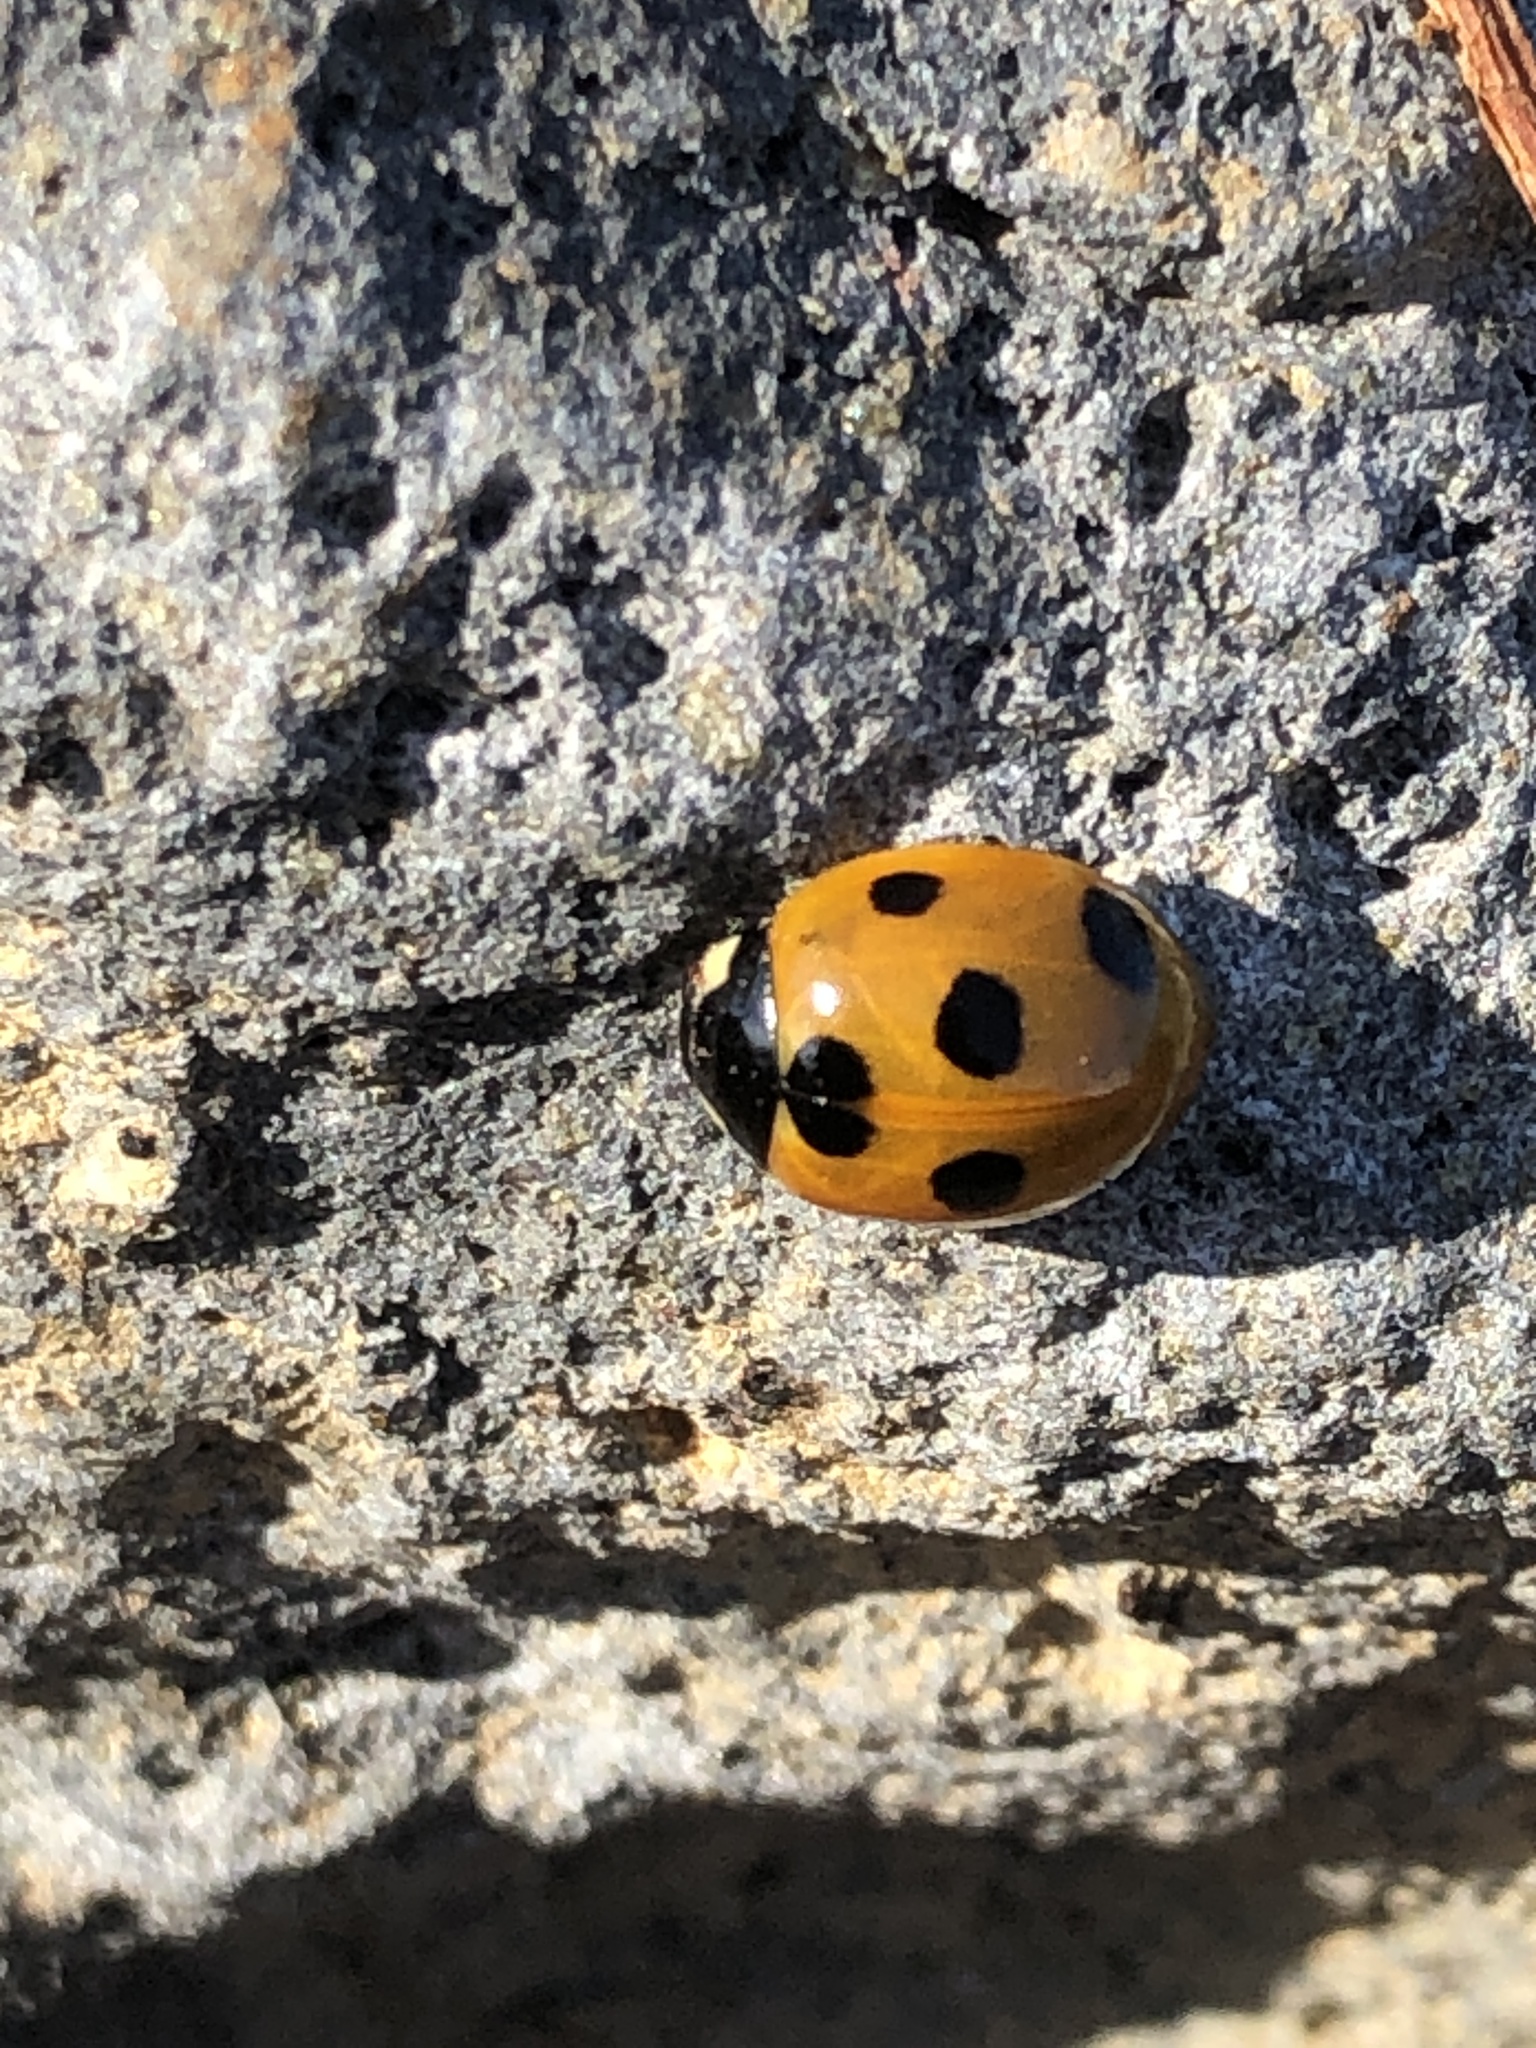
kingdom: Animalia
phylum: Arthropoda
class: Insecta
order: Coleoptera
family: Coccinellidae
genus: Coccinella
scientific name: Coccinella septempunctata
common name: Sevenspotted lady beetle
